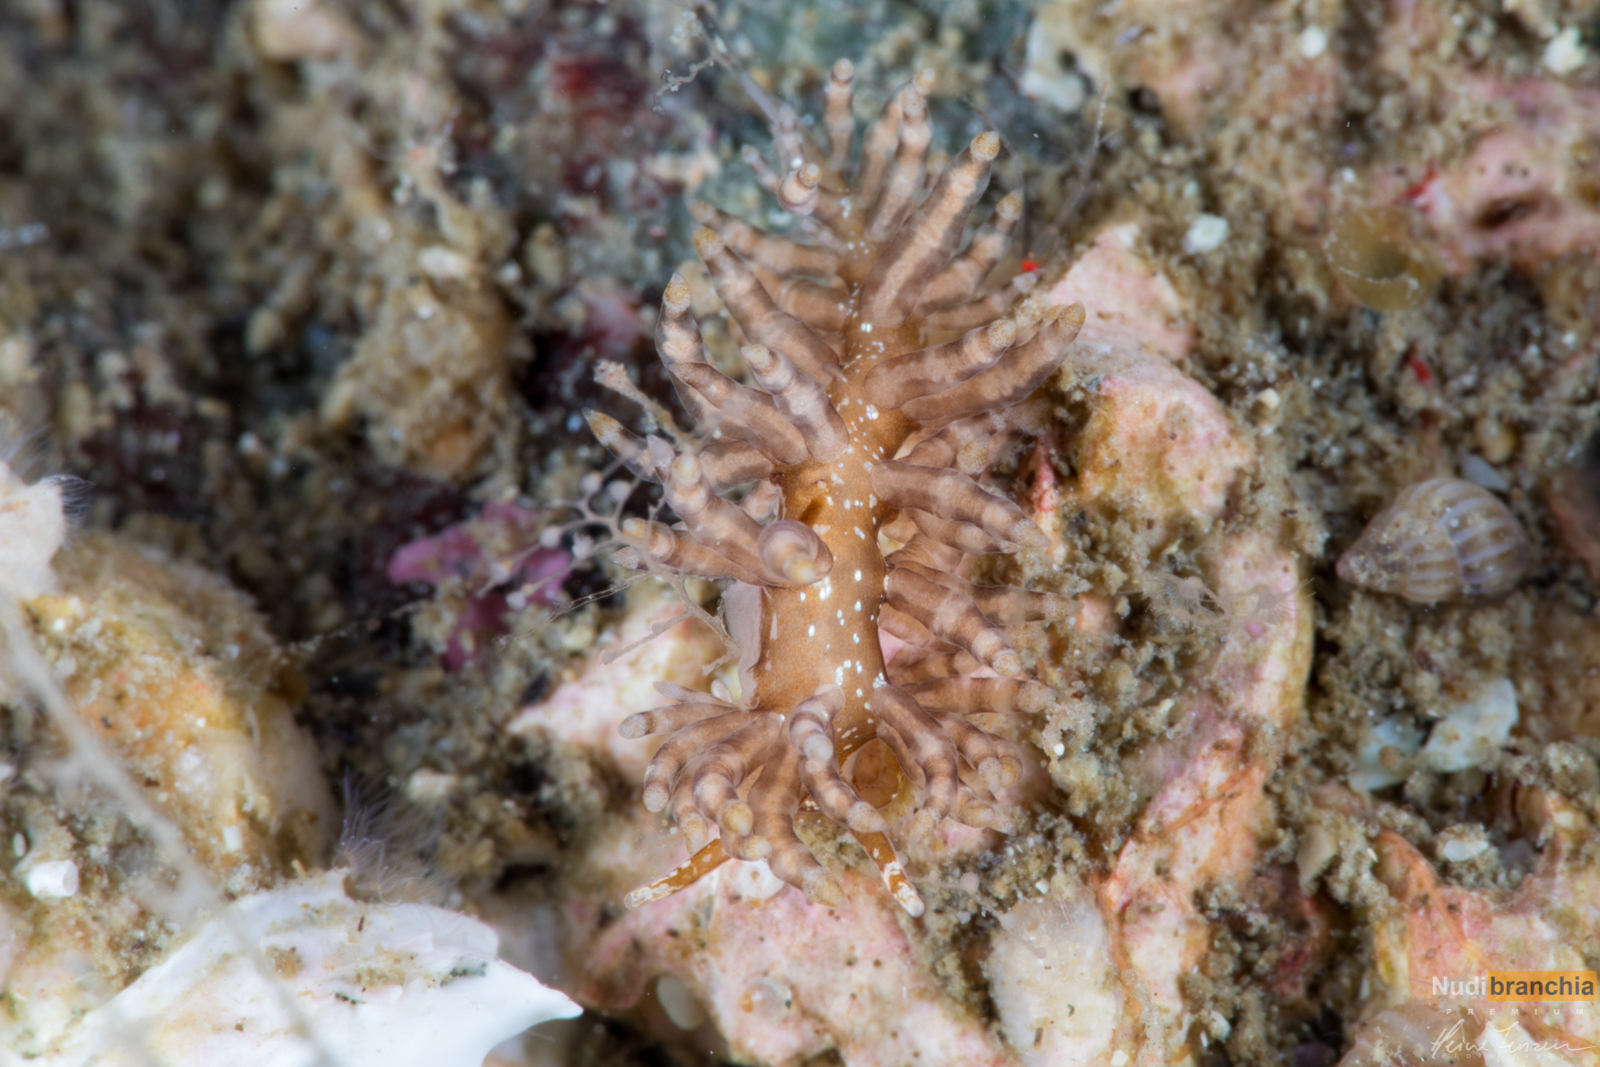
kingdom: Animalia
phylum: Mollusca
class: Gastropoda
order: Nudibranchia
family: Eubranchidae
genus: Eubranchus
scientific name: Eubranchus vittatus
